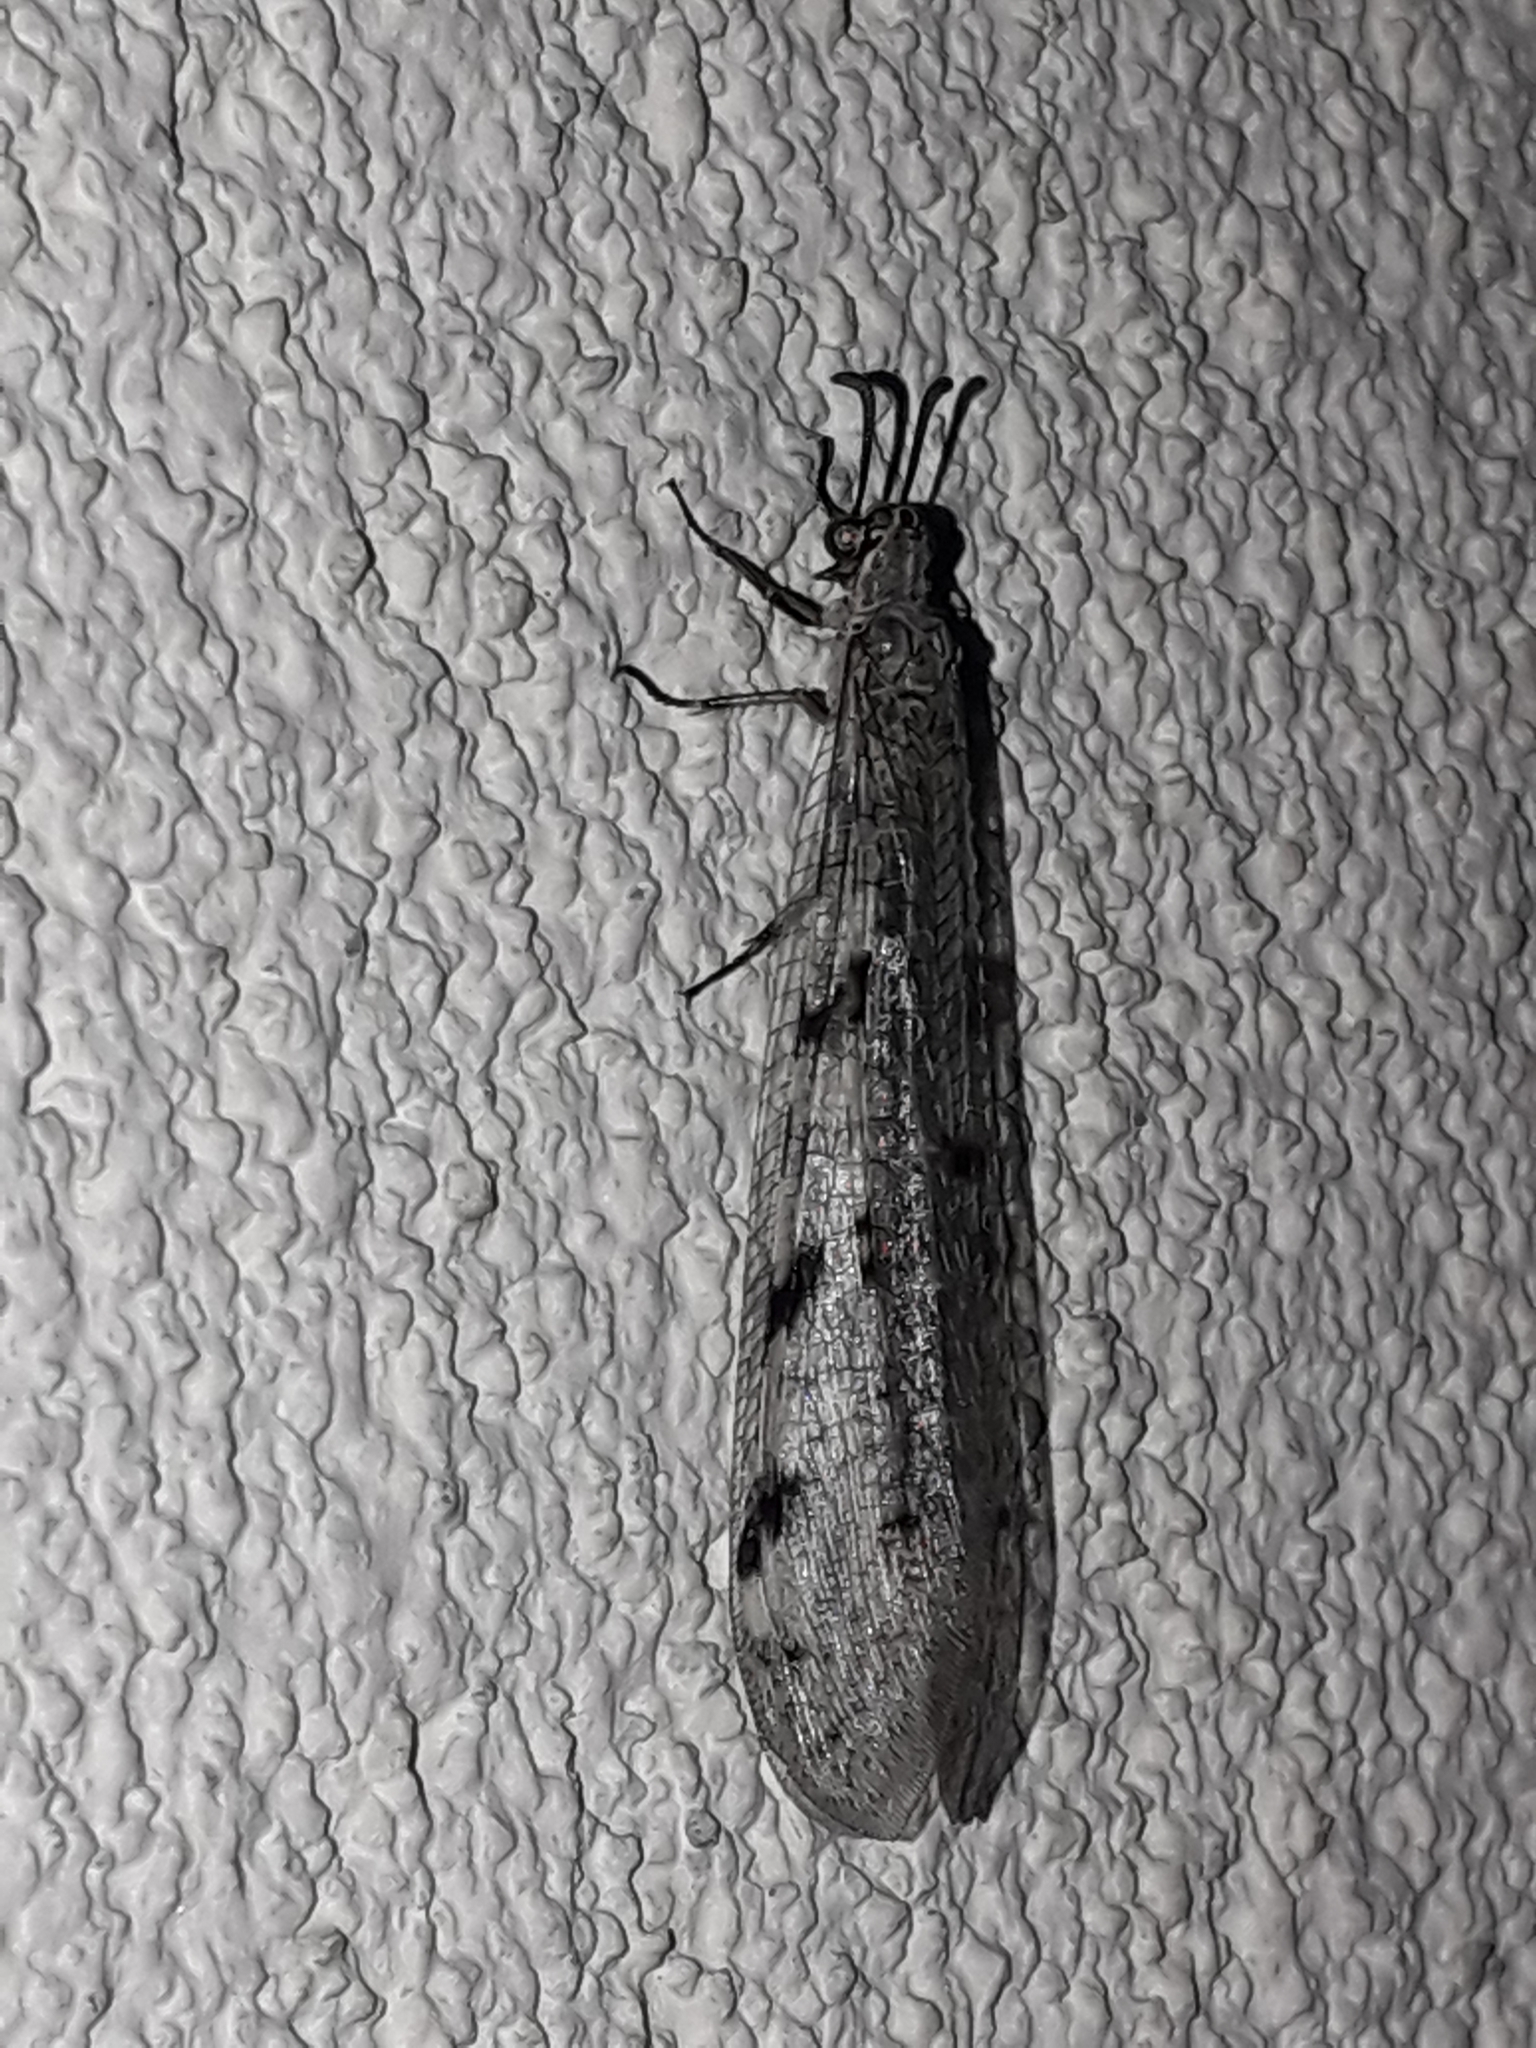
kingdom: Animalia
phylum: Arthropoda
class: Insecta
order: Neuroptera
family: Myrmeleontidae
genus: Euroleon
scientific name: Euroleon nostras
